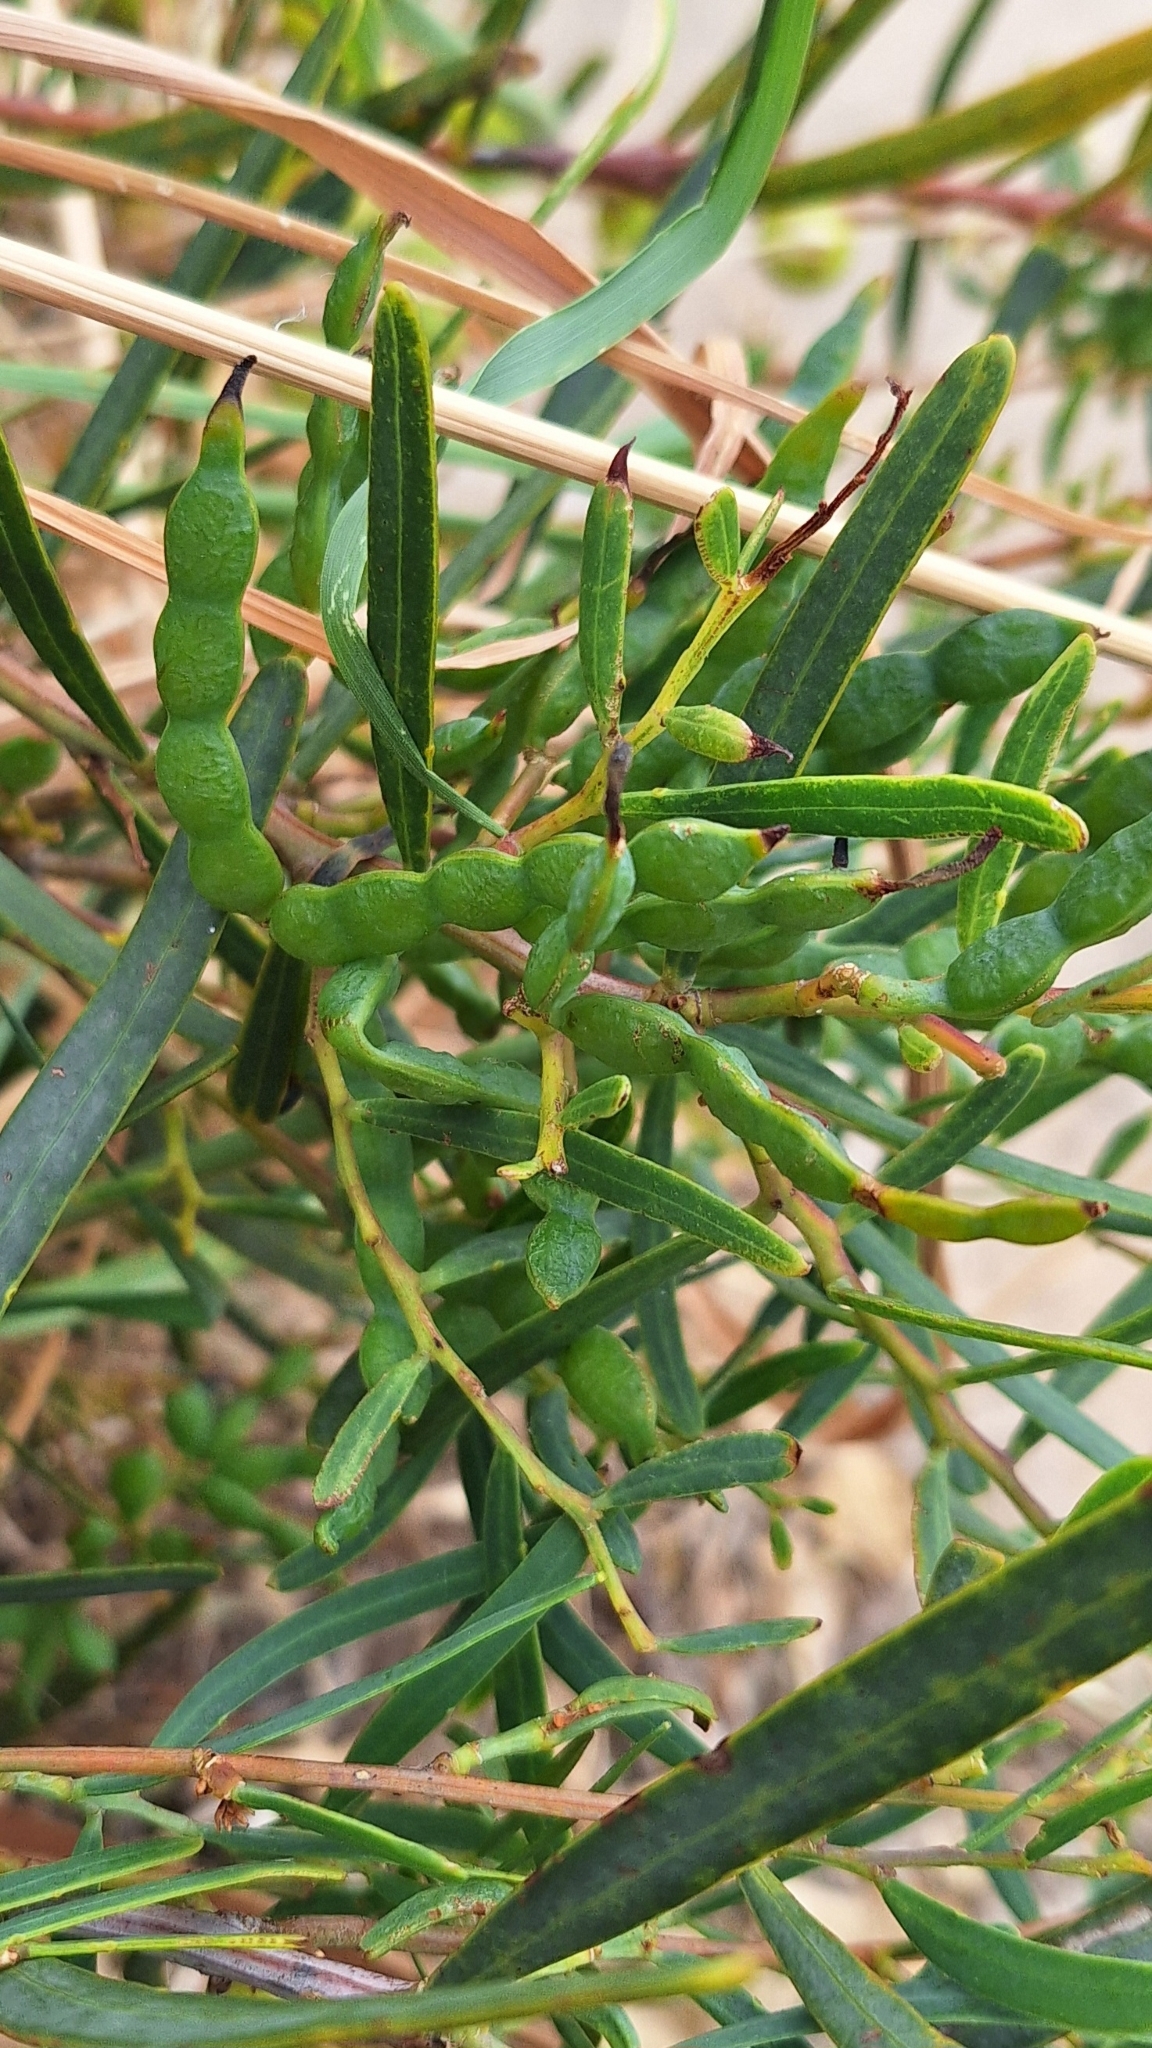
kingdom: Plantae
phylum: Tracheophyta
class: Magnoliopsida
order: Fabales
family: Fabaceae
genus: Acacia
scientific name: Acacia ligulata
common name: Dune wattle
